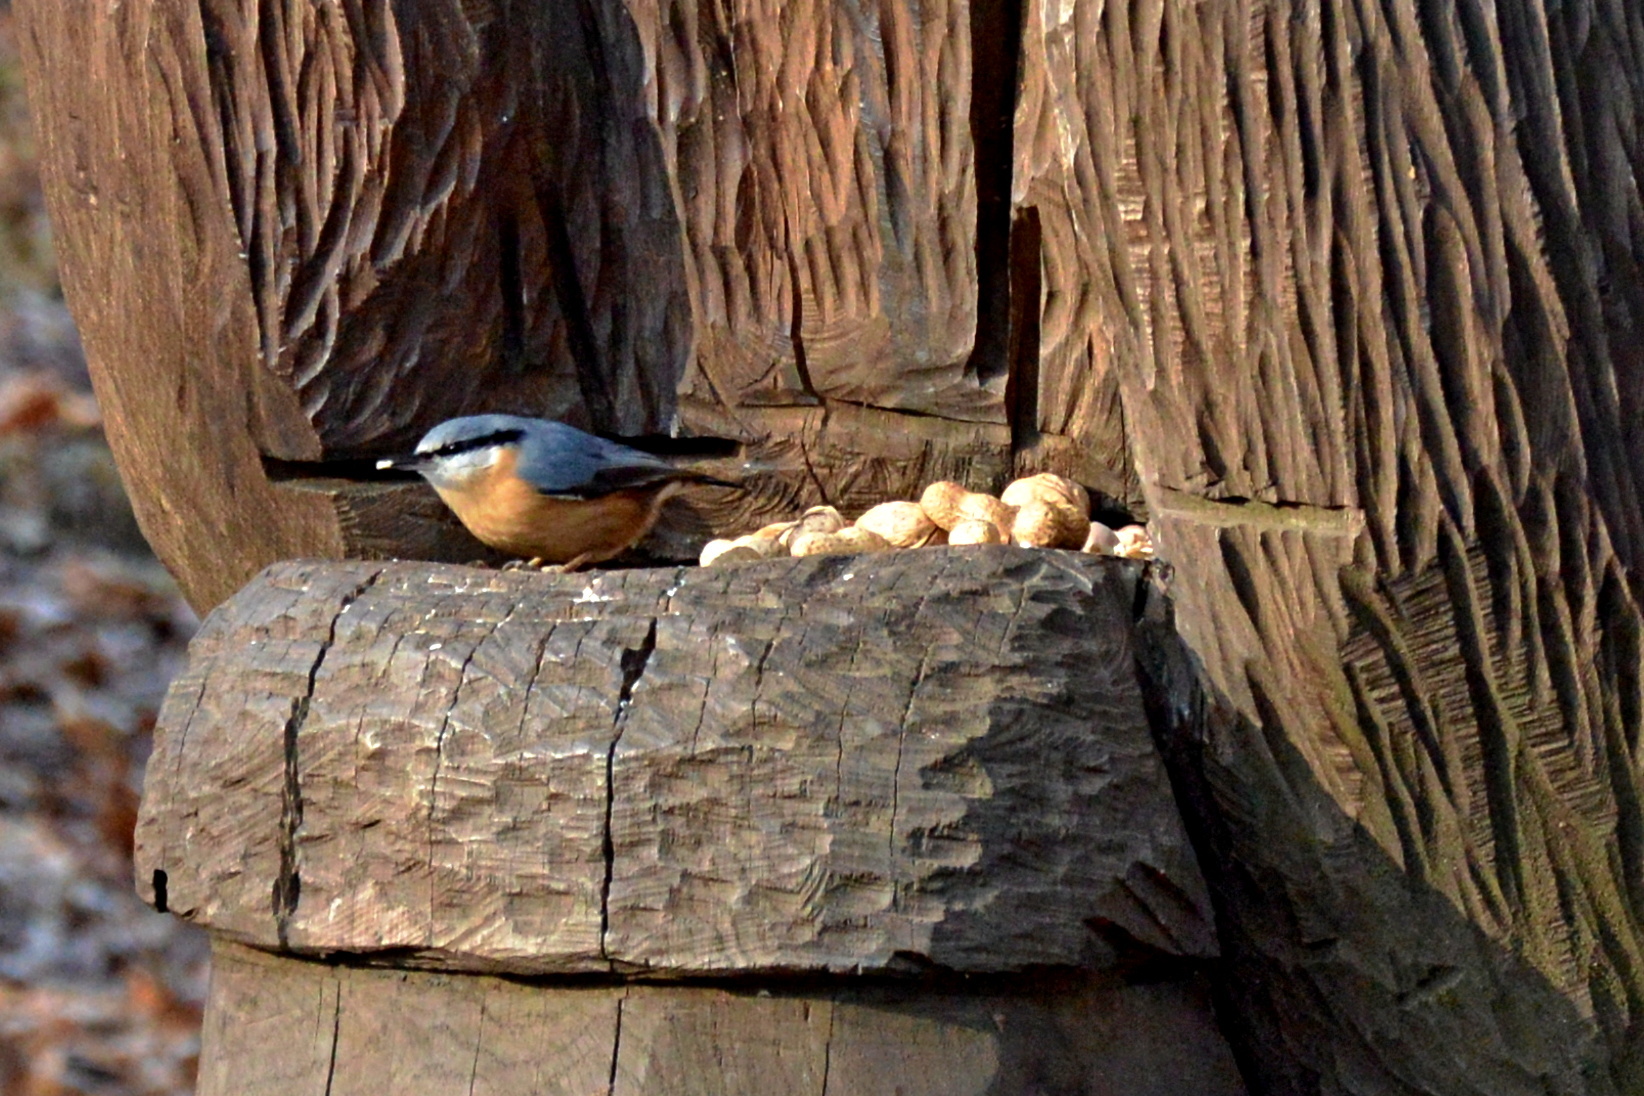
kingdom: Animalia
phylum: Chordata
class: Aves
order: Passeriformes
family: Sittidae
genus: Sitta
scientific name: Sitta europaea
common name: Eurasian nuthatch
